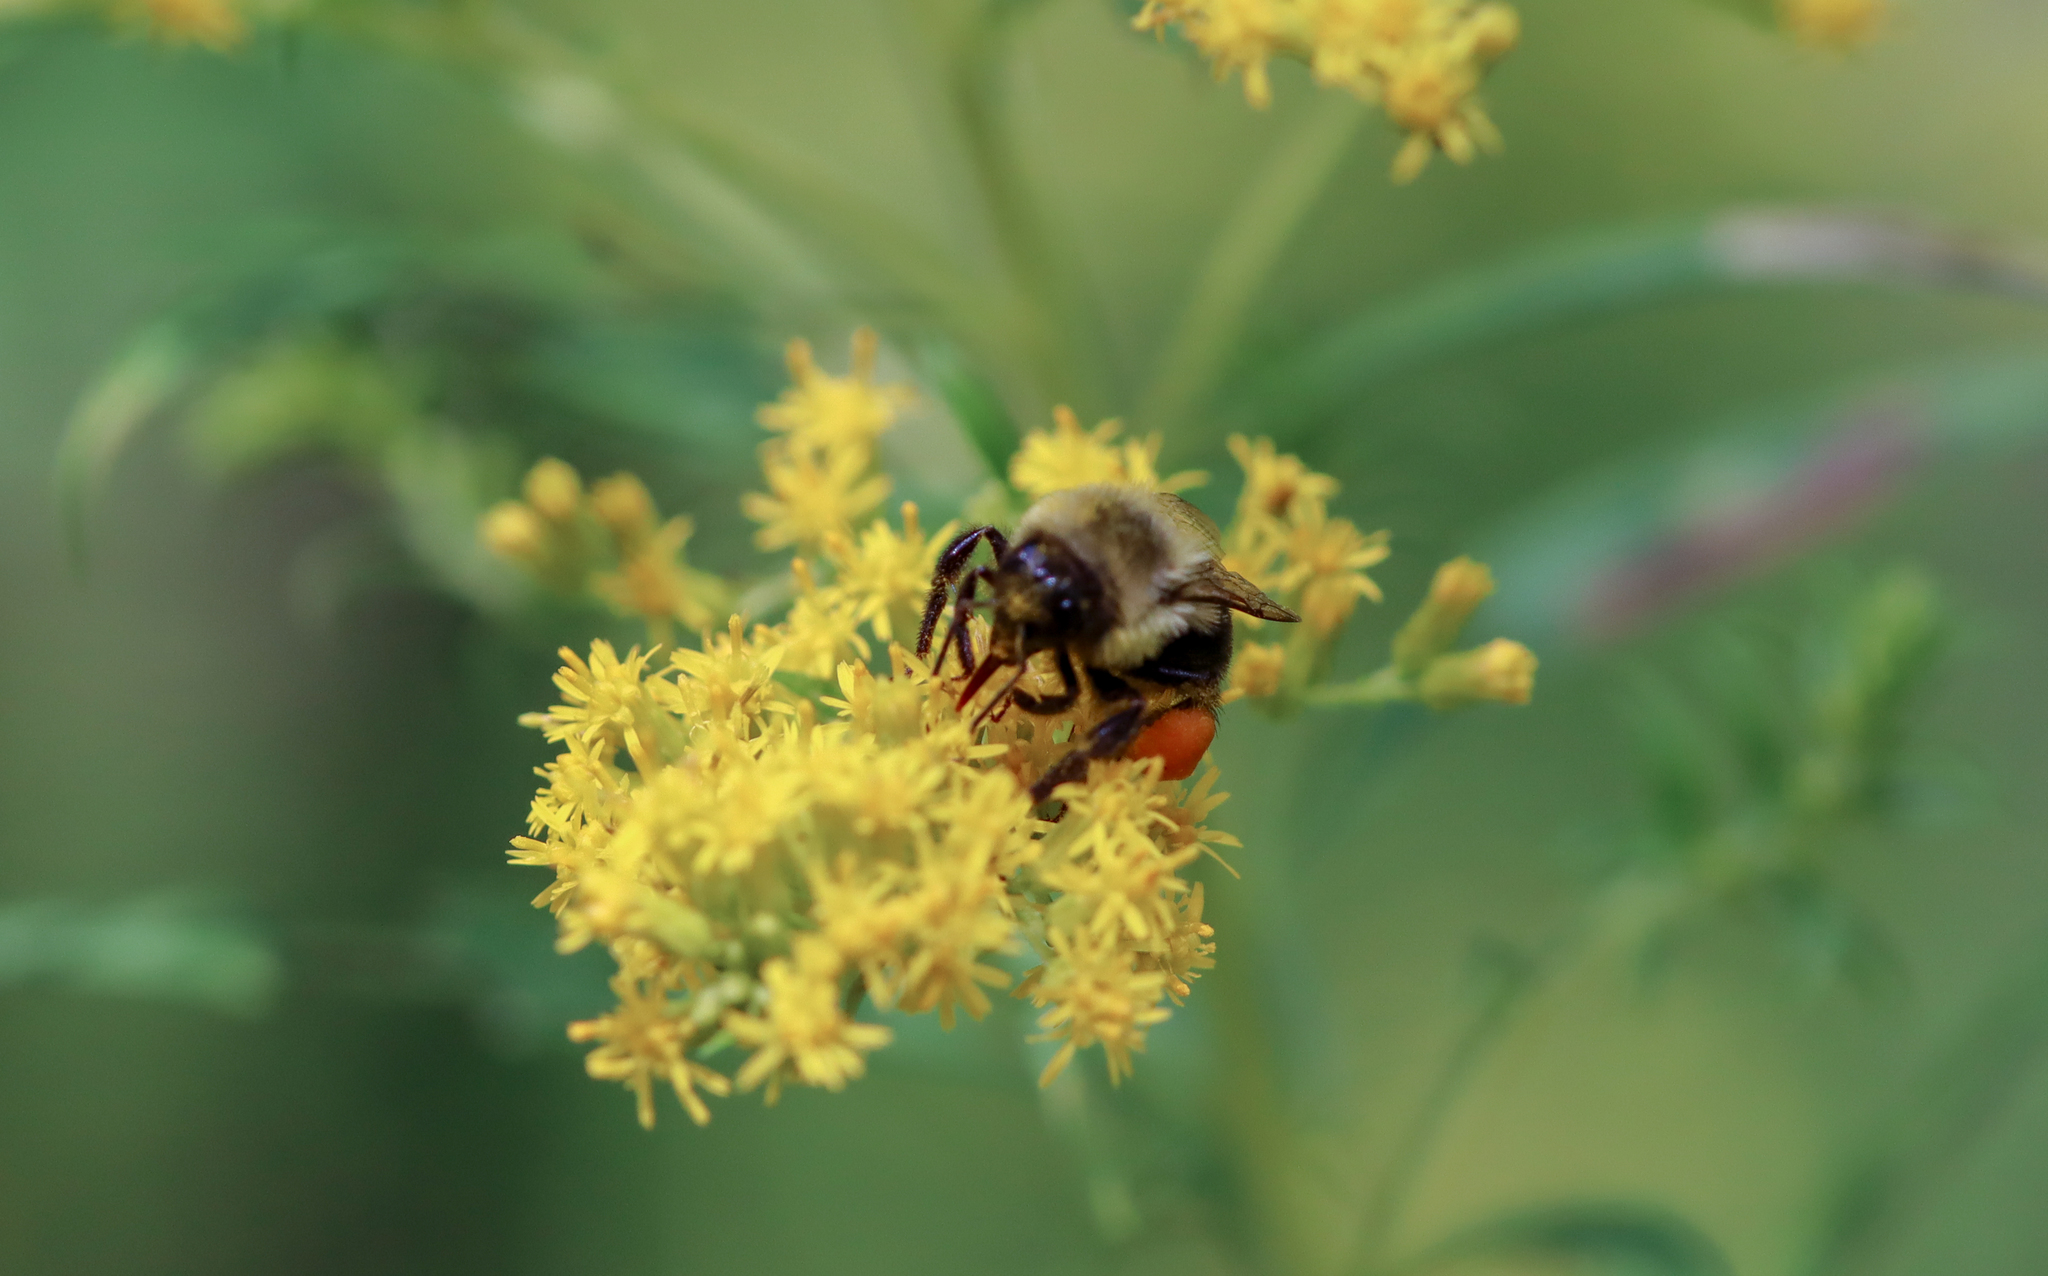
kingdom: Animalia
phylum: Arthropoda
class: Insecta
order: Hymenoptera
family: Apidae
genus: Bombus
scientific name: Bombus impatiens
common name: Common eastern bumble bee
